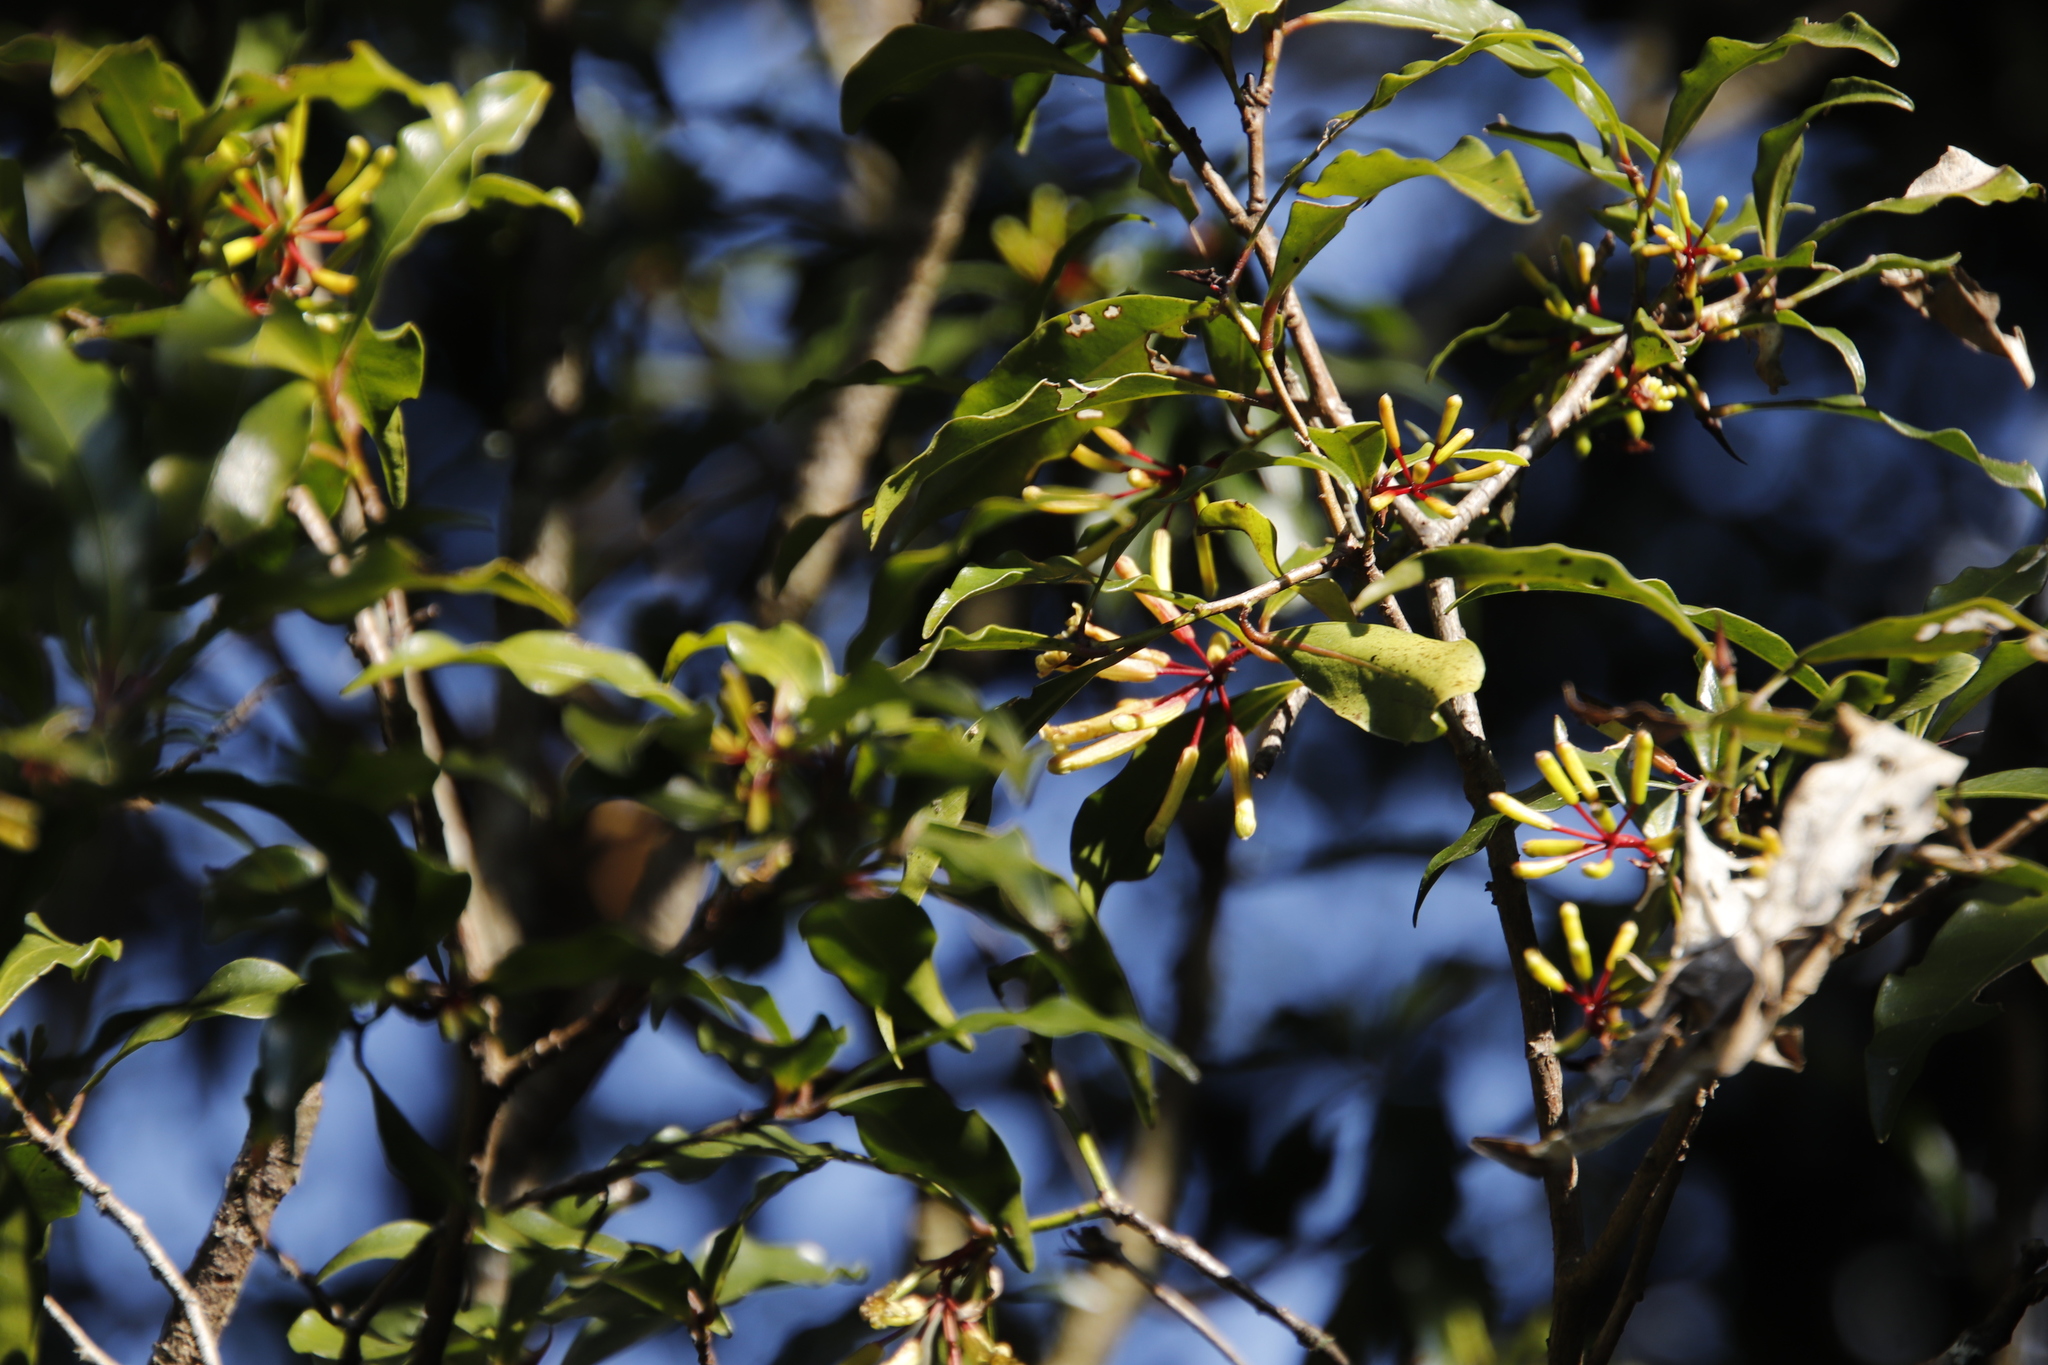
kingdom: Plantae
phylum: Tracheophyta
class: Magnoliopsida
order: Malvales
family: Thymelaeaceae
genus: Peddiea
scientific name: Peddiea africana
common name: Poison olive
